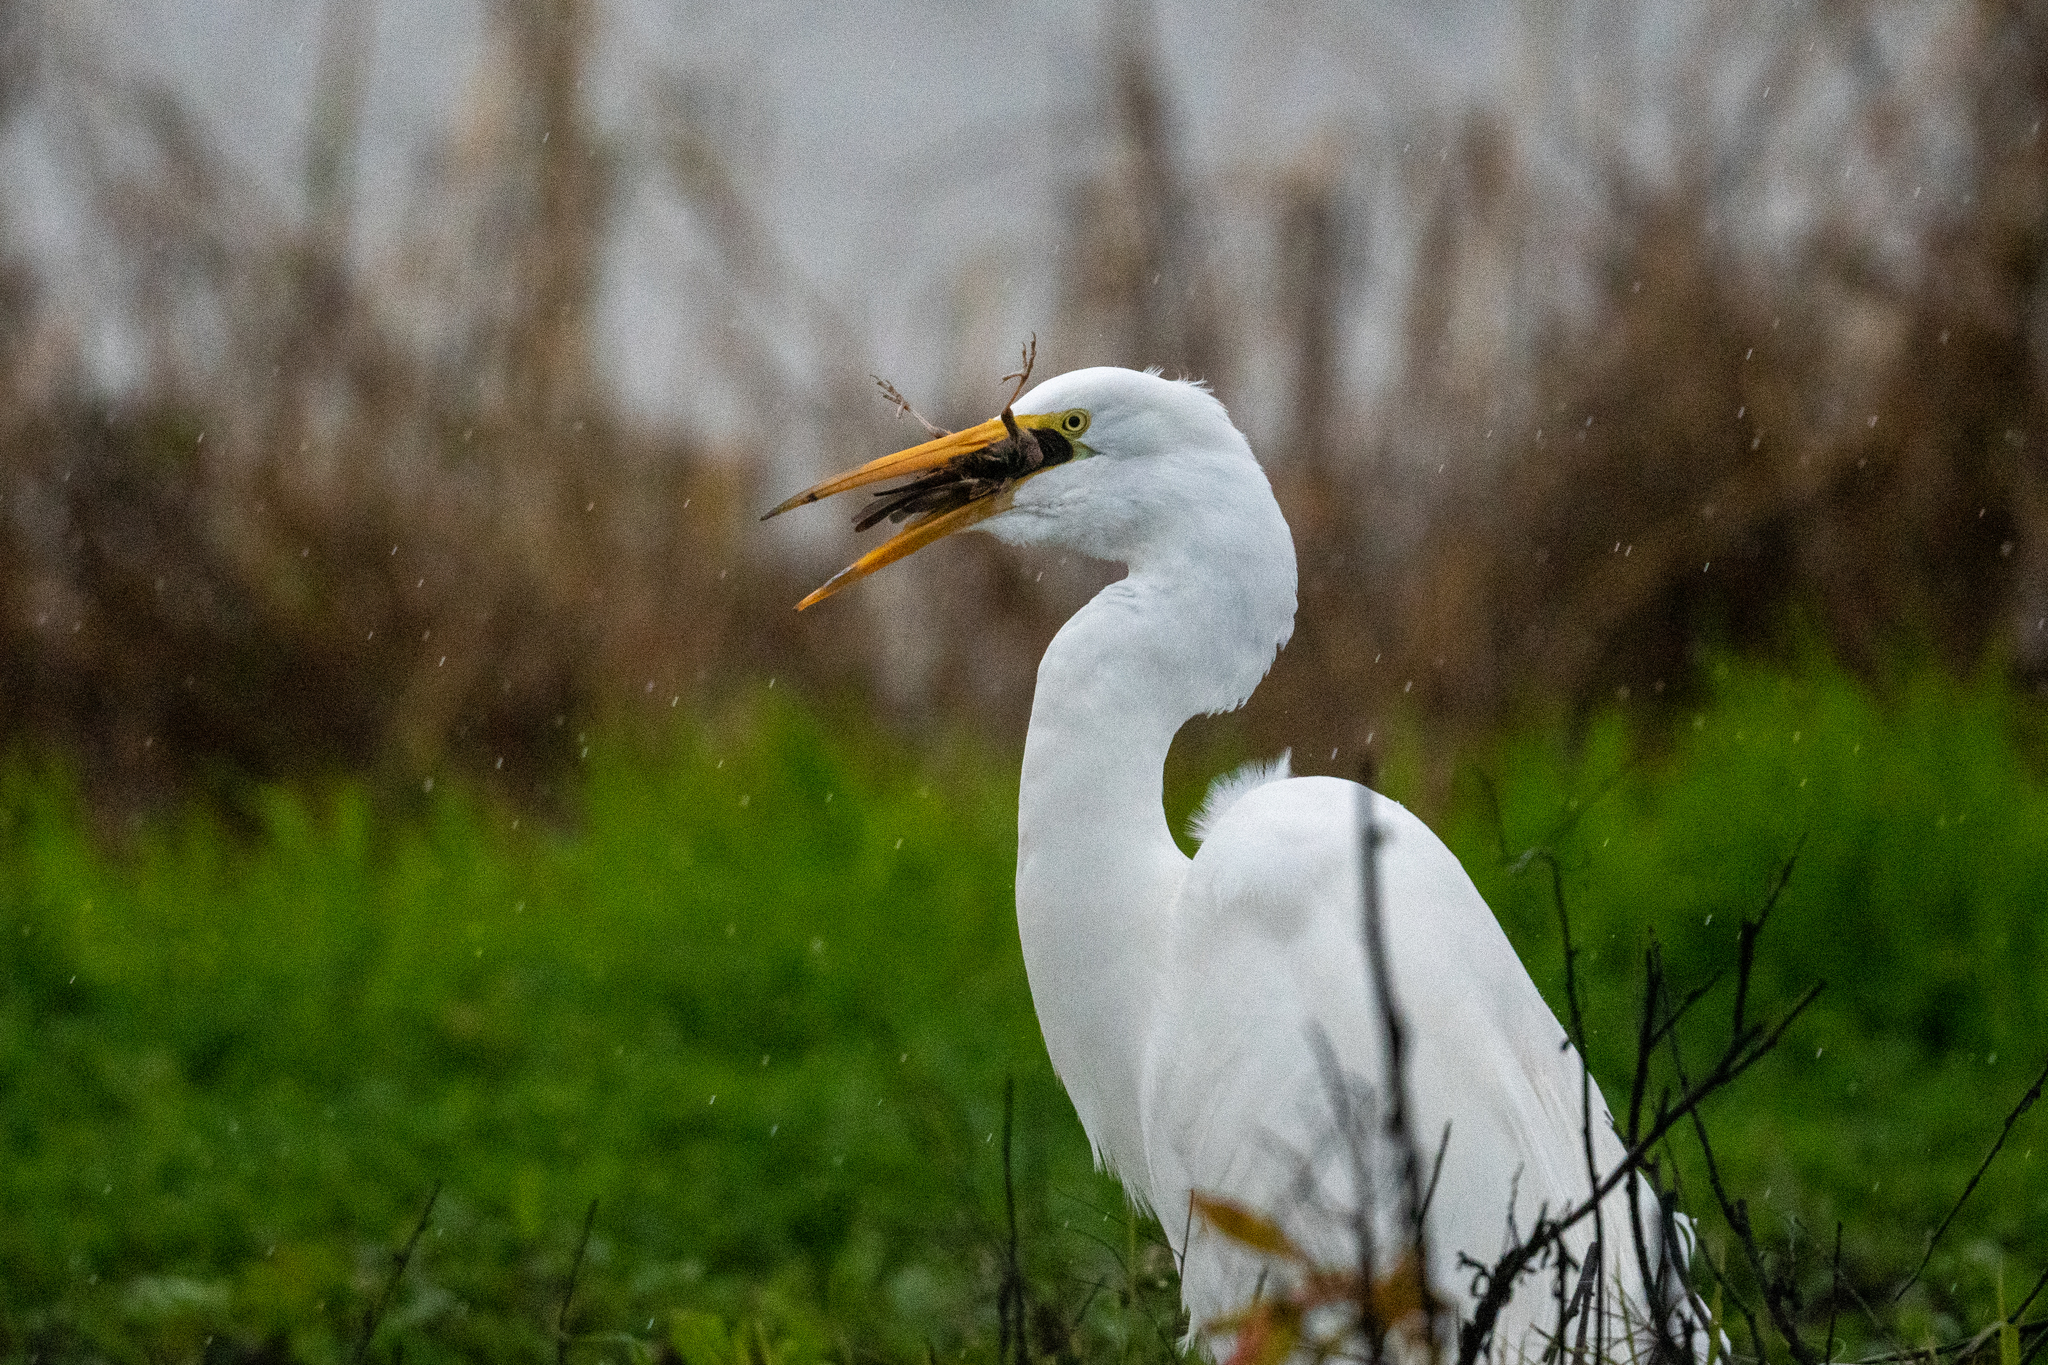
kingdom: Animalia
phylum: Chordata
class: Aves
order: Pelecaniformes
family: Ardeidae
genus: Ardea
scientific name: Ardea alba
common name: Great egret
